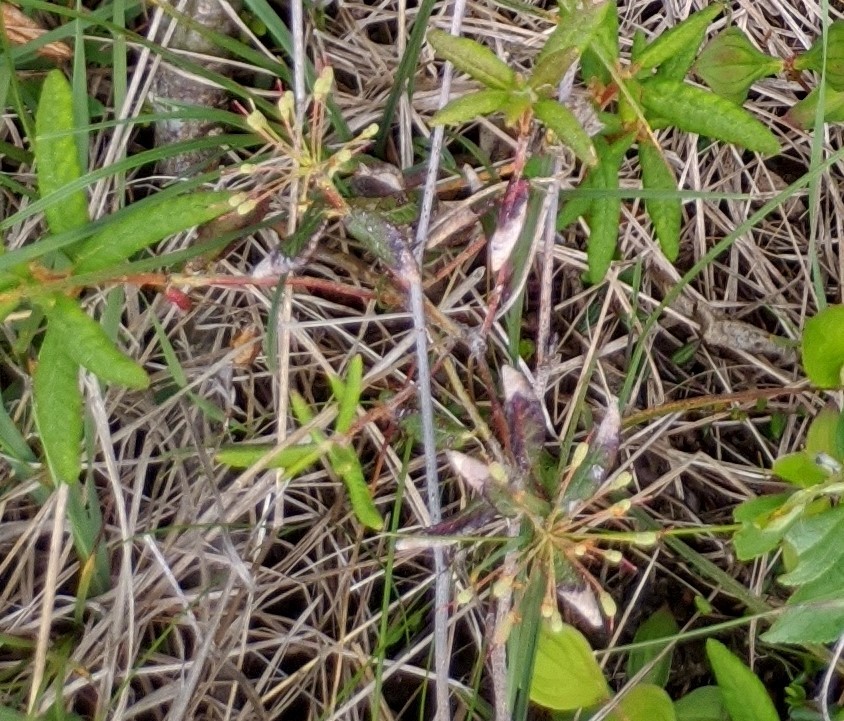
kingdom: Plantae
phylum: Tracheophyta
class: Magnoliopsida
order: Ericales
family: Ericaceae
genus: Rhododendron
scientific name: Rhododendron groenlandicum
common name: Bog labrador tea
